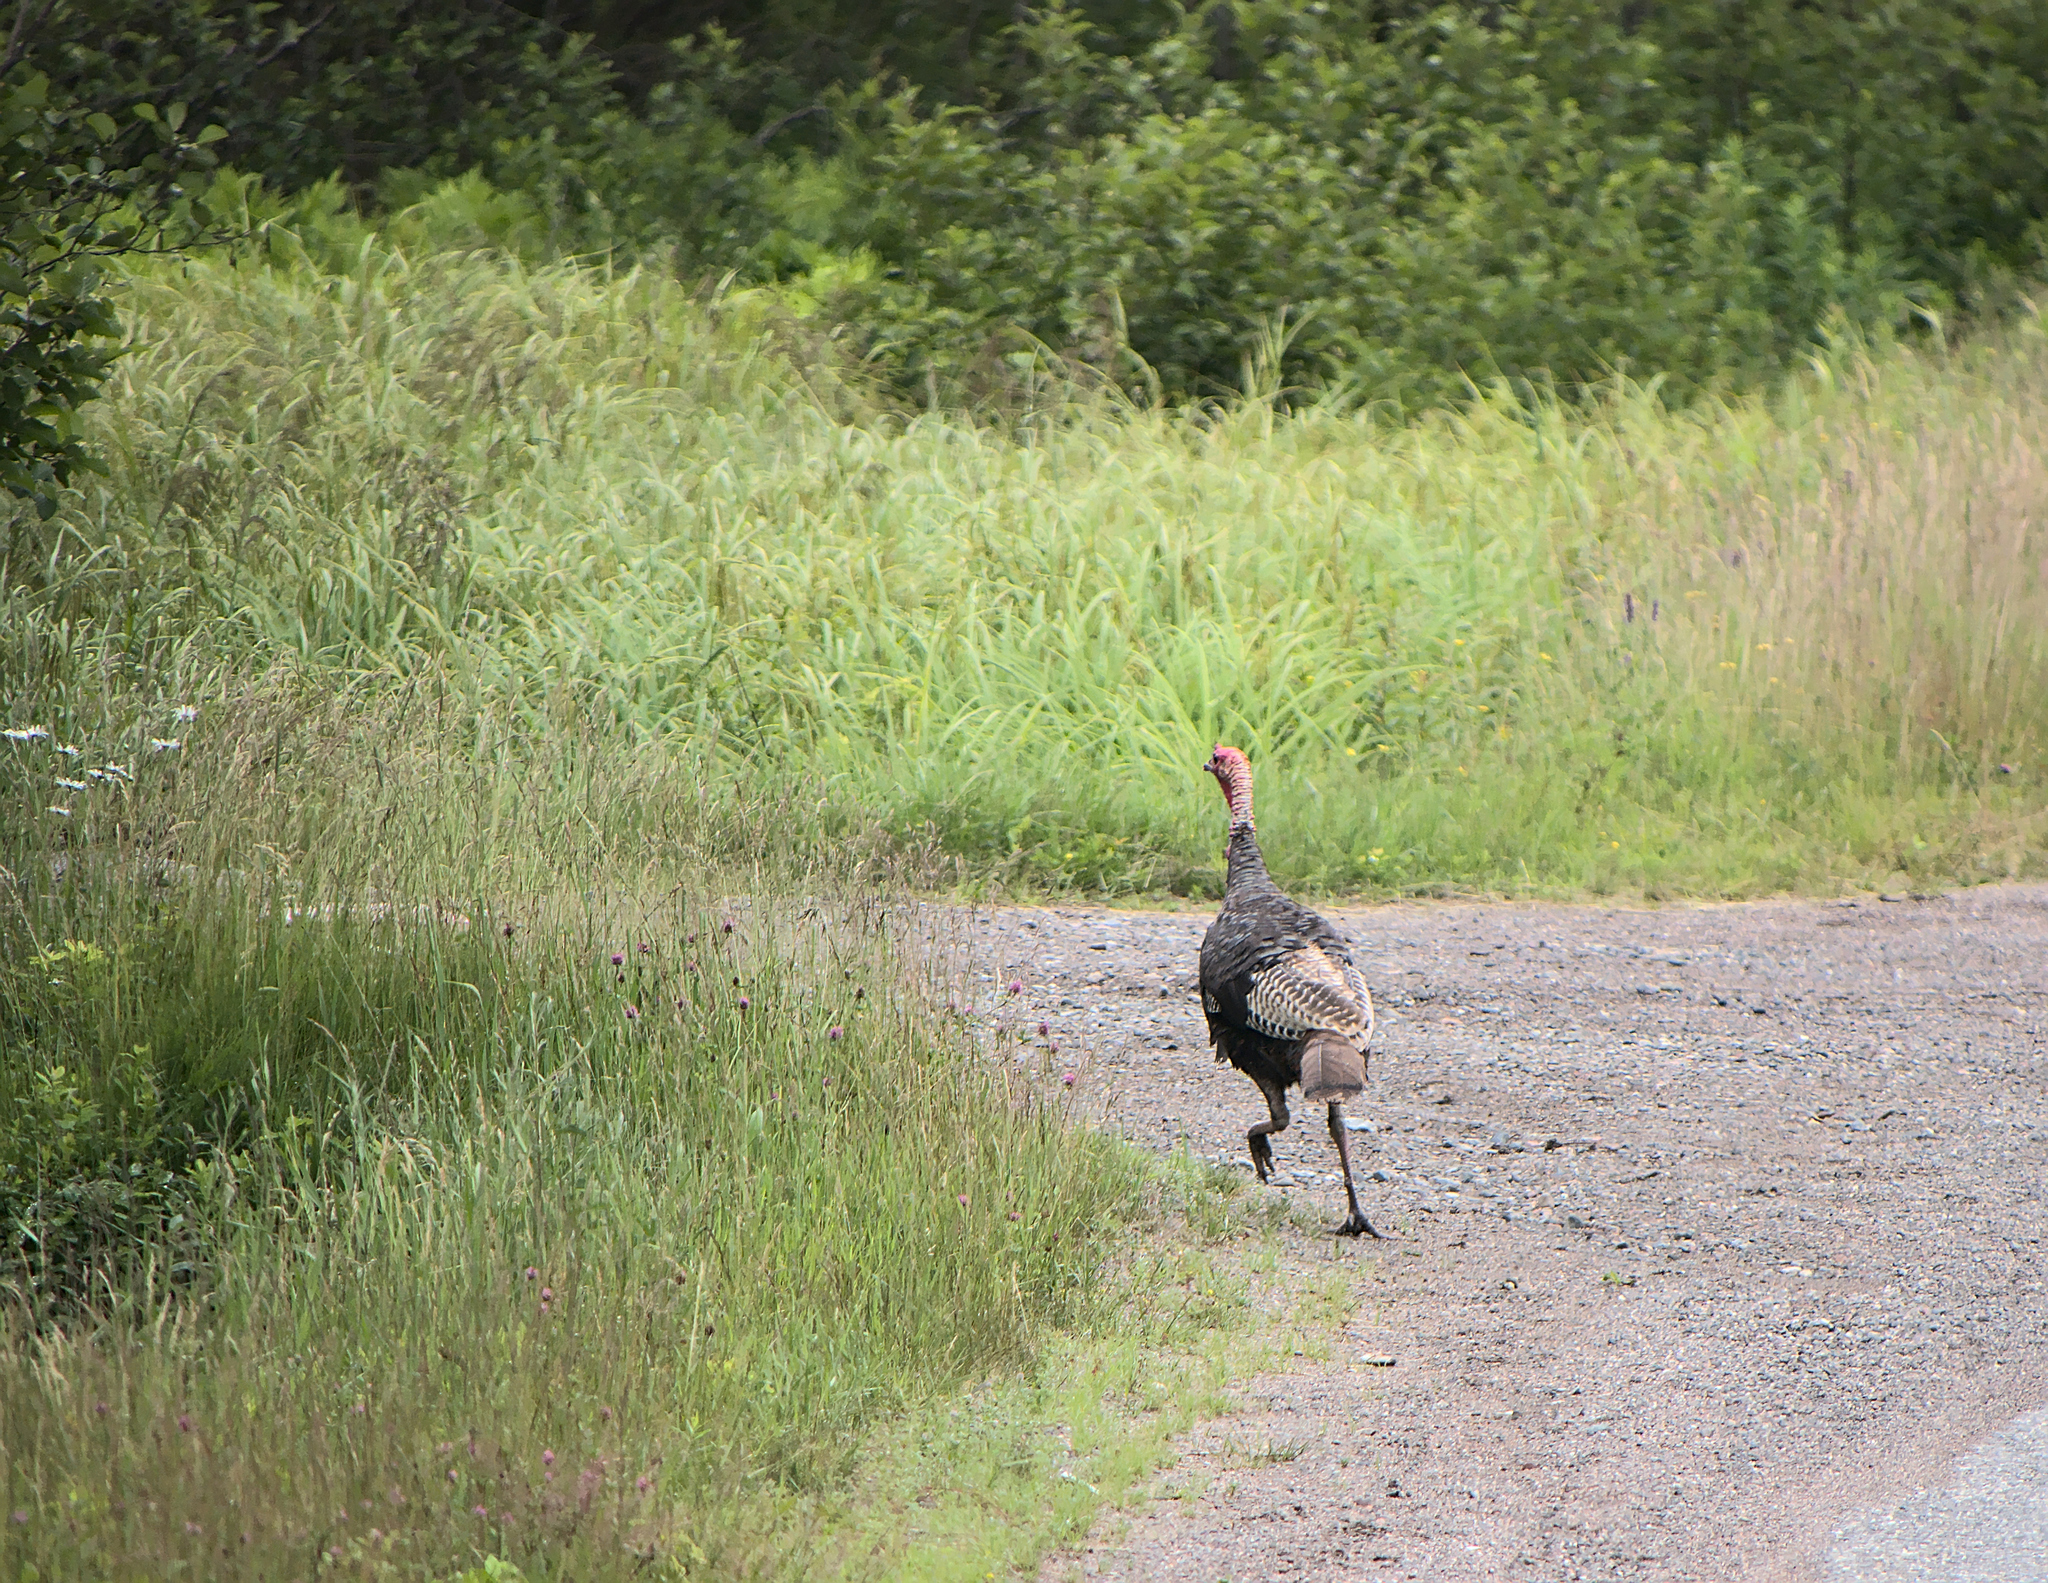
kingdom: Animalia
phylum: Chordata
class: Aves
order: Galliformes
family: Phasianidae
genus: Meleagris
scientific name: Meleagris gallopavo
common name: Wild turkey
